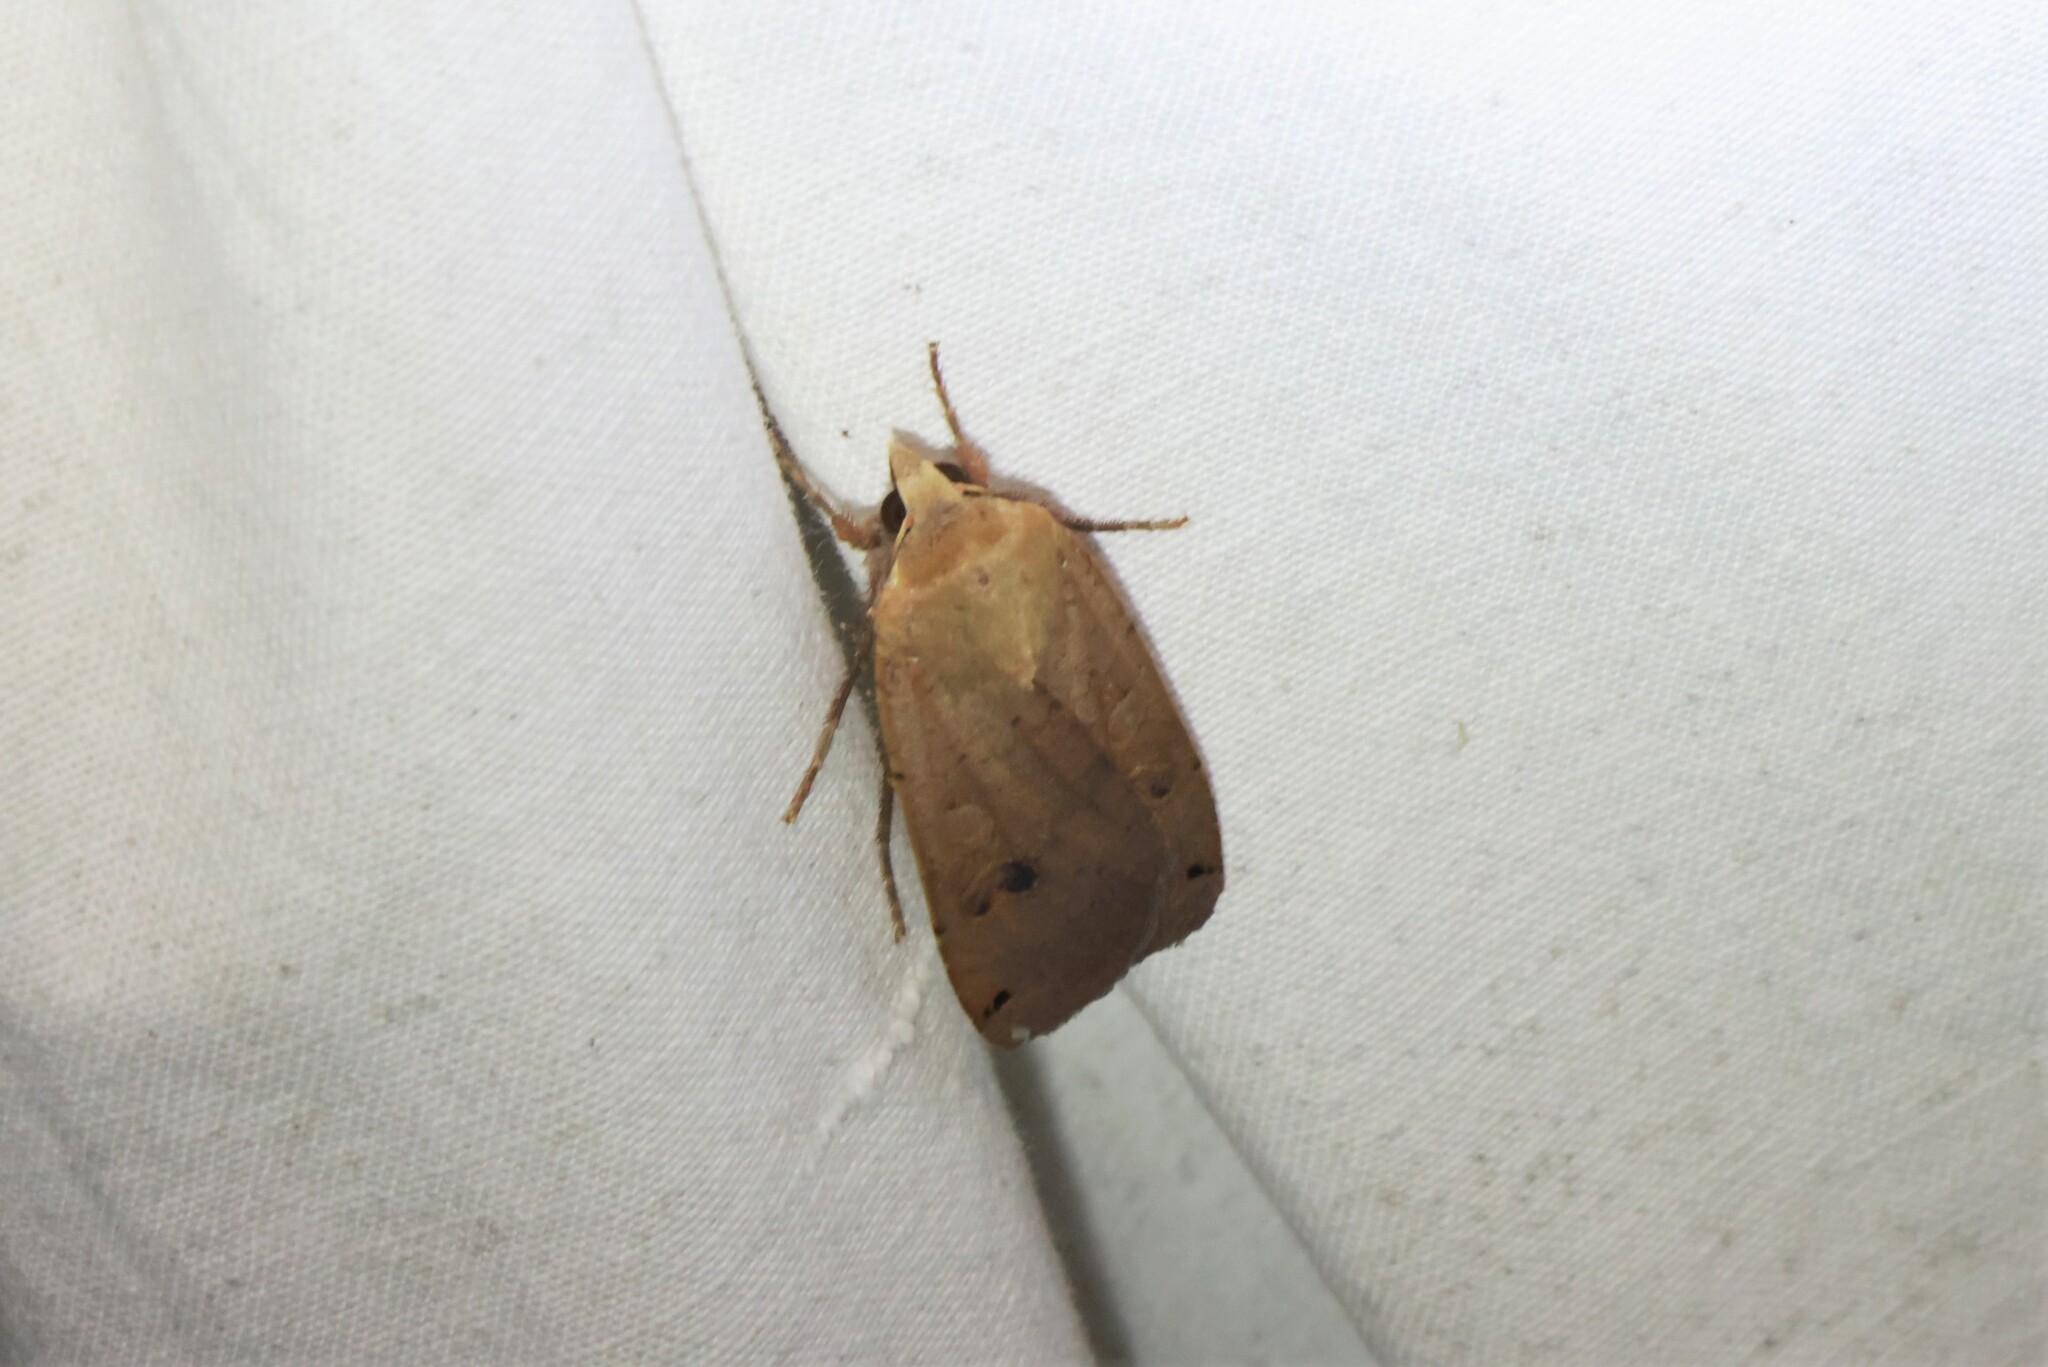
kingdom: Animalia
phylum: Arthropoda
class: Insecta
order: Lepidoptera
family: Noctuidae
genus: Noctua
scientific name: Noctua pronuba
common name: Large yellow underwing
